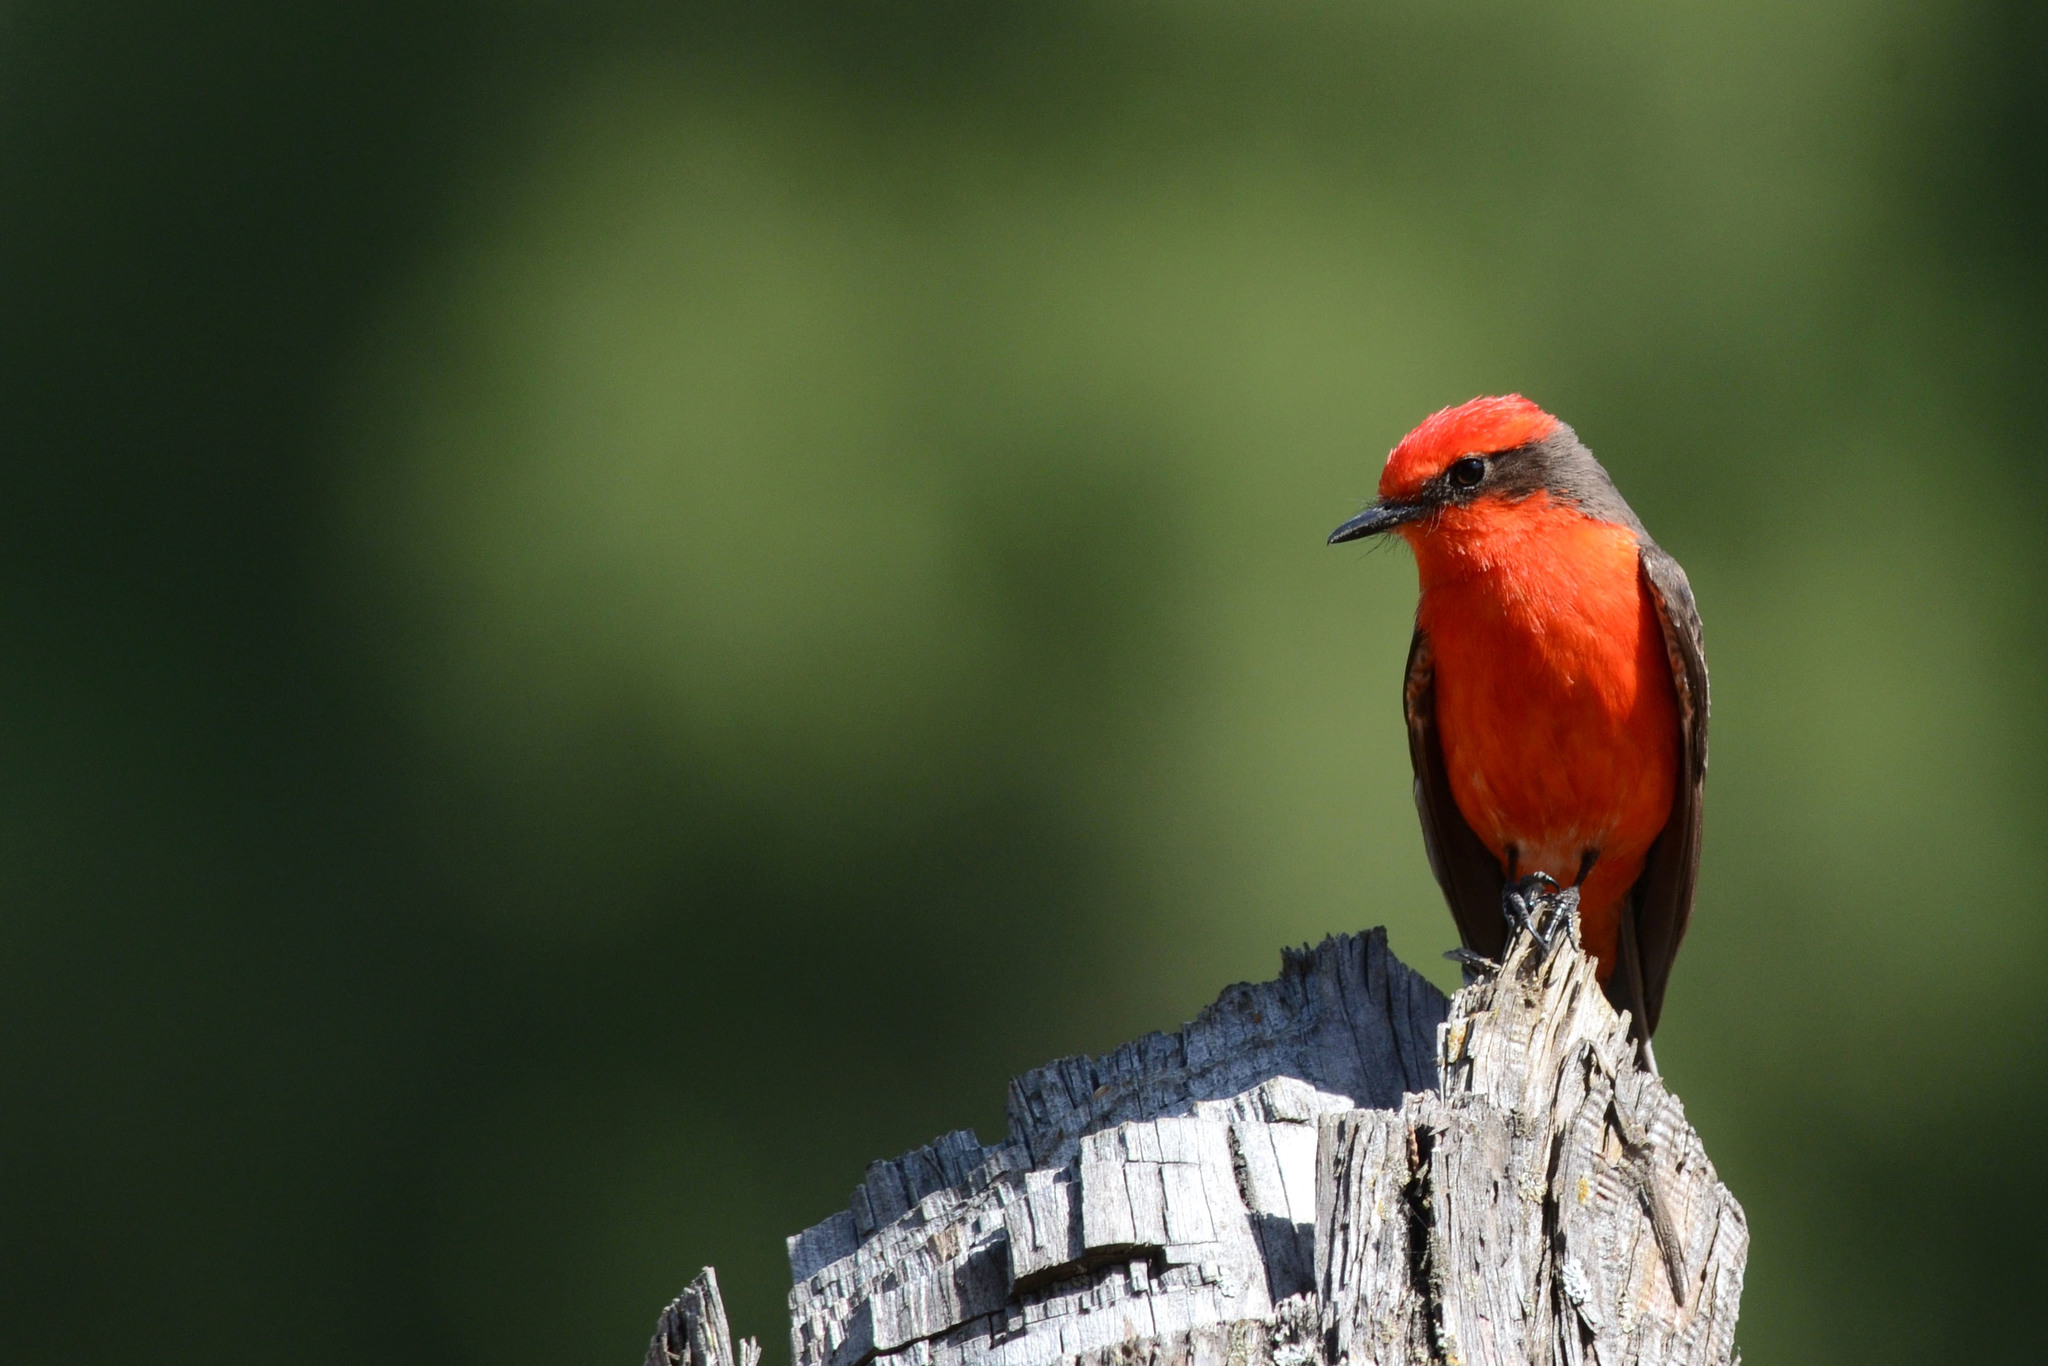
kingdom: Animalia
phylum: Chordata
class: Aves
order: Passeriformes
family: Tyrannidae
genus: Pyrocephalus
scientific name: Pyrocephalus rubinus
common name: Vermilion flycatcher
